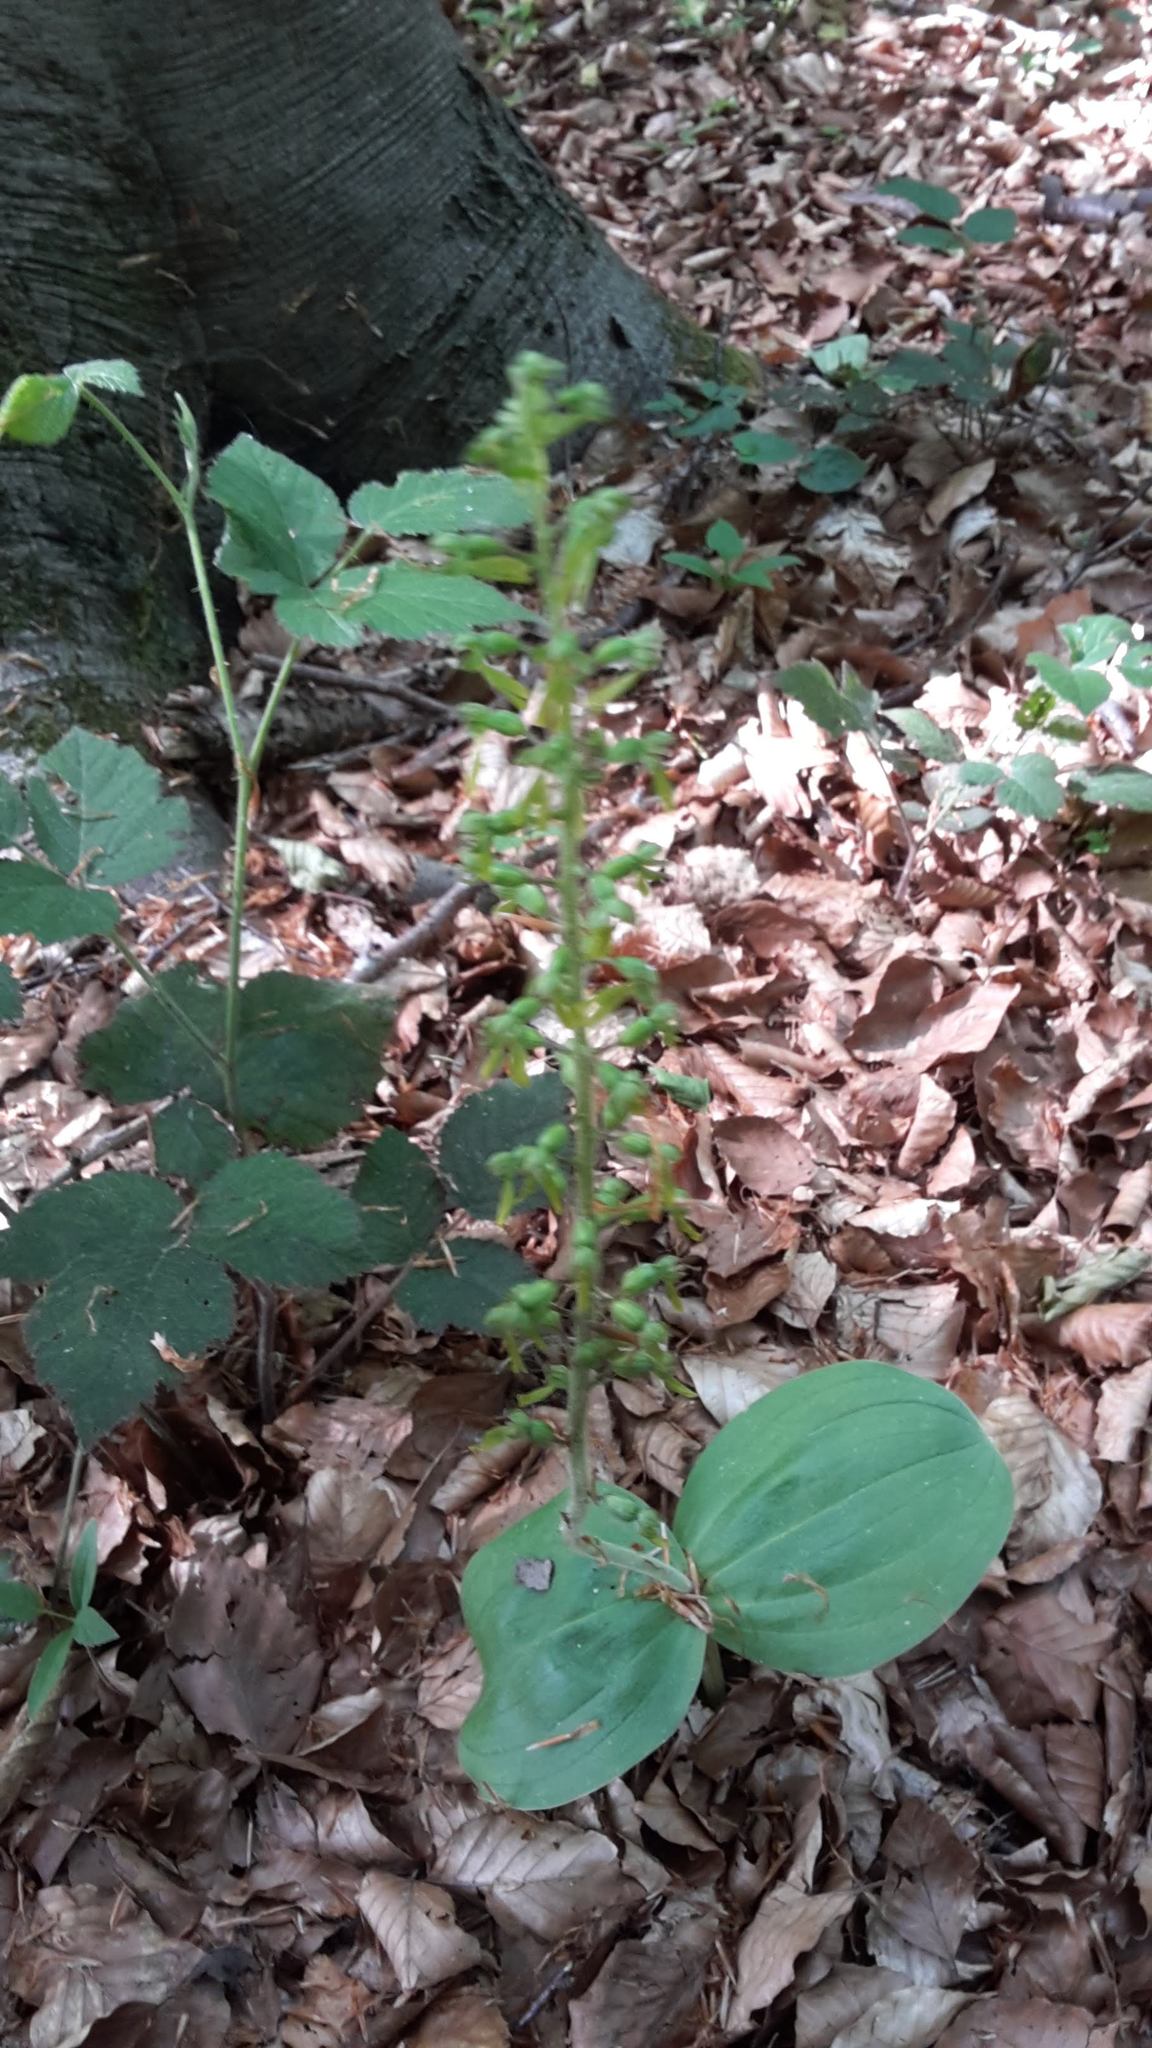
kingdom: Plantae
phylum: Tracheophyta
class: Liliopsida
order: Asparagales
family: Orchidaceae
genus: Neottia
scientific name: Neottia ovata
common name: Common twayblade
